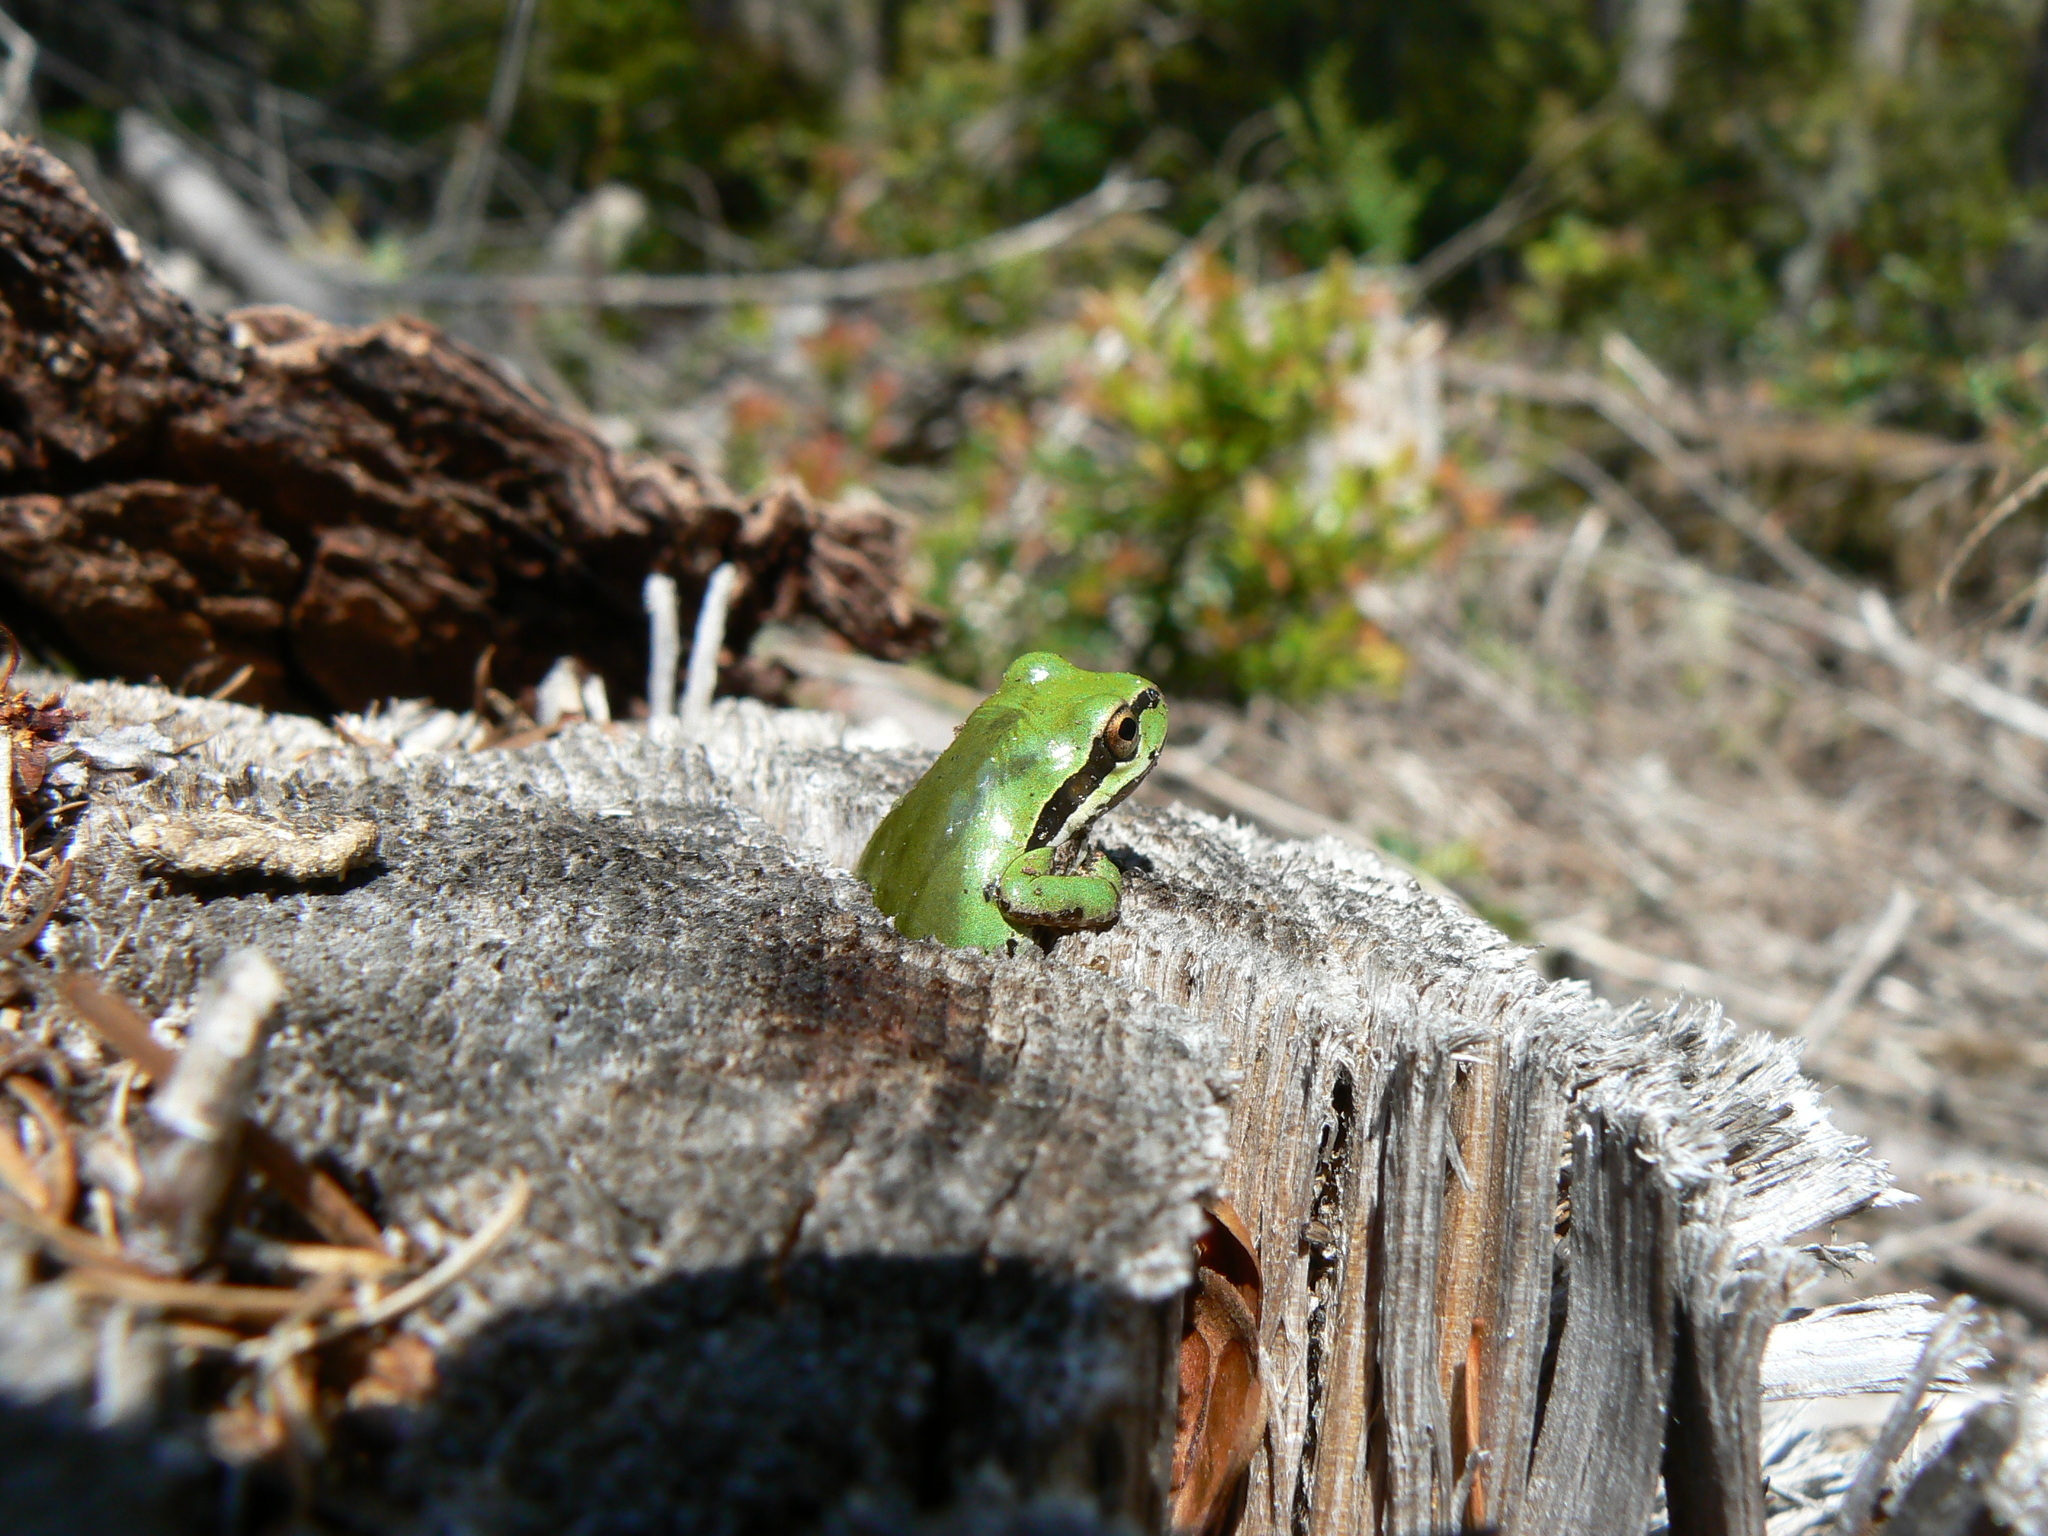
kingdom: Animalia
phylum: Chordata
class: Amphibia
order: Anura
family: Hylidae
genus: Pseudacris
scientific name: Pseudacris regilla
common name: Pacific chorus frog
